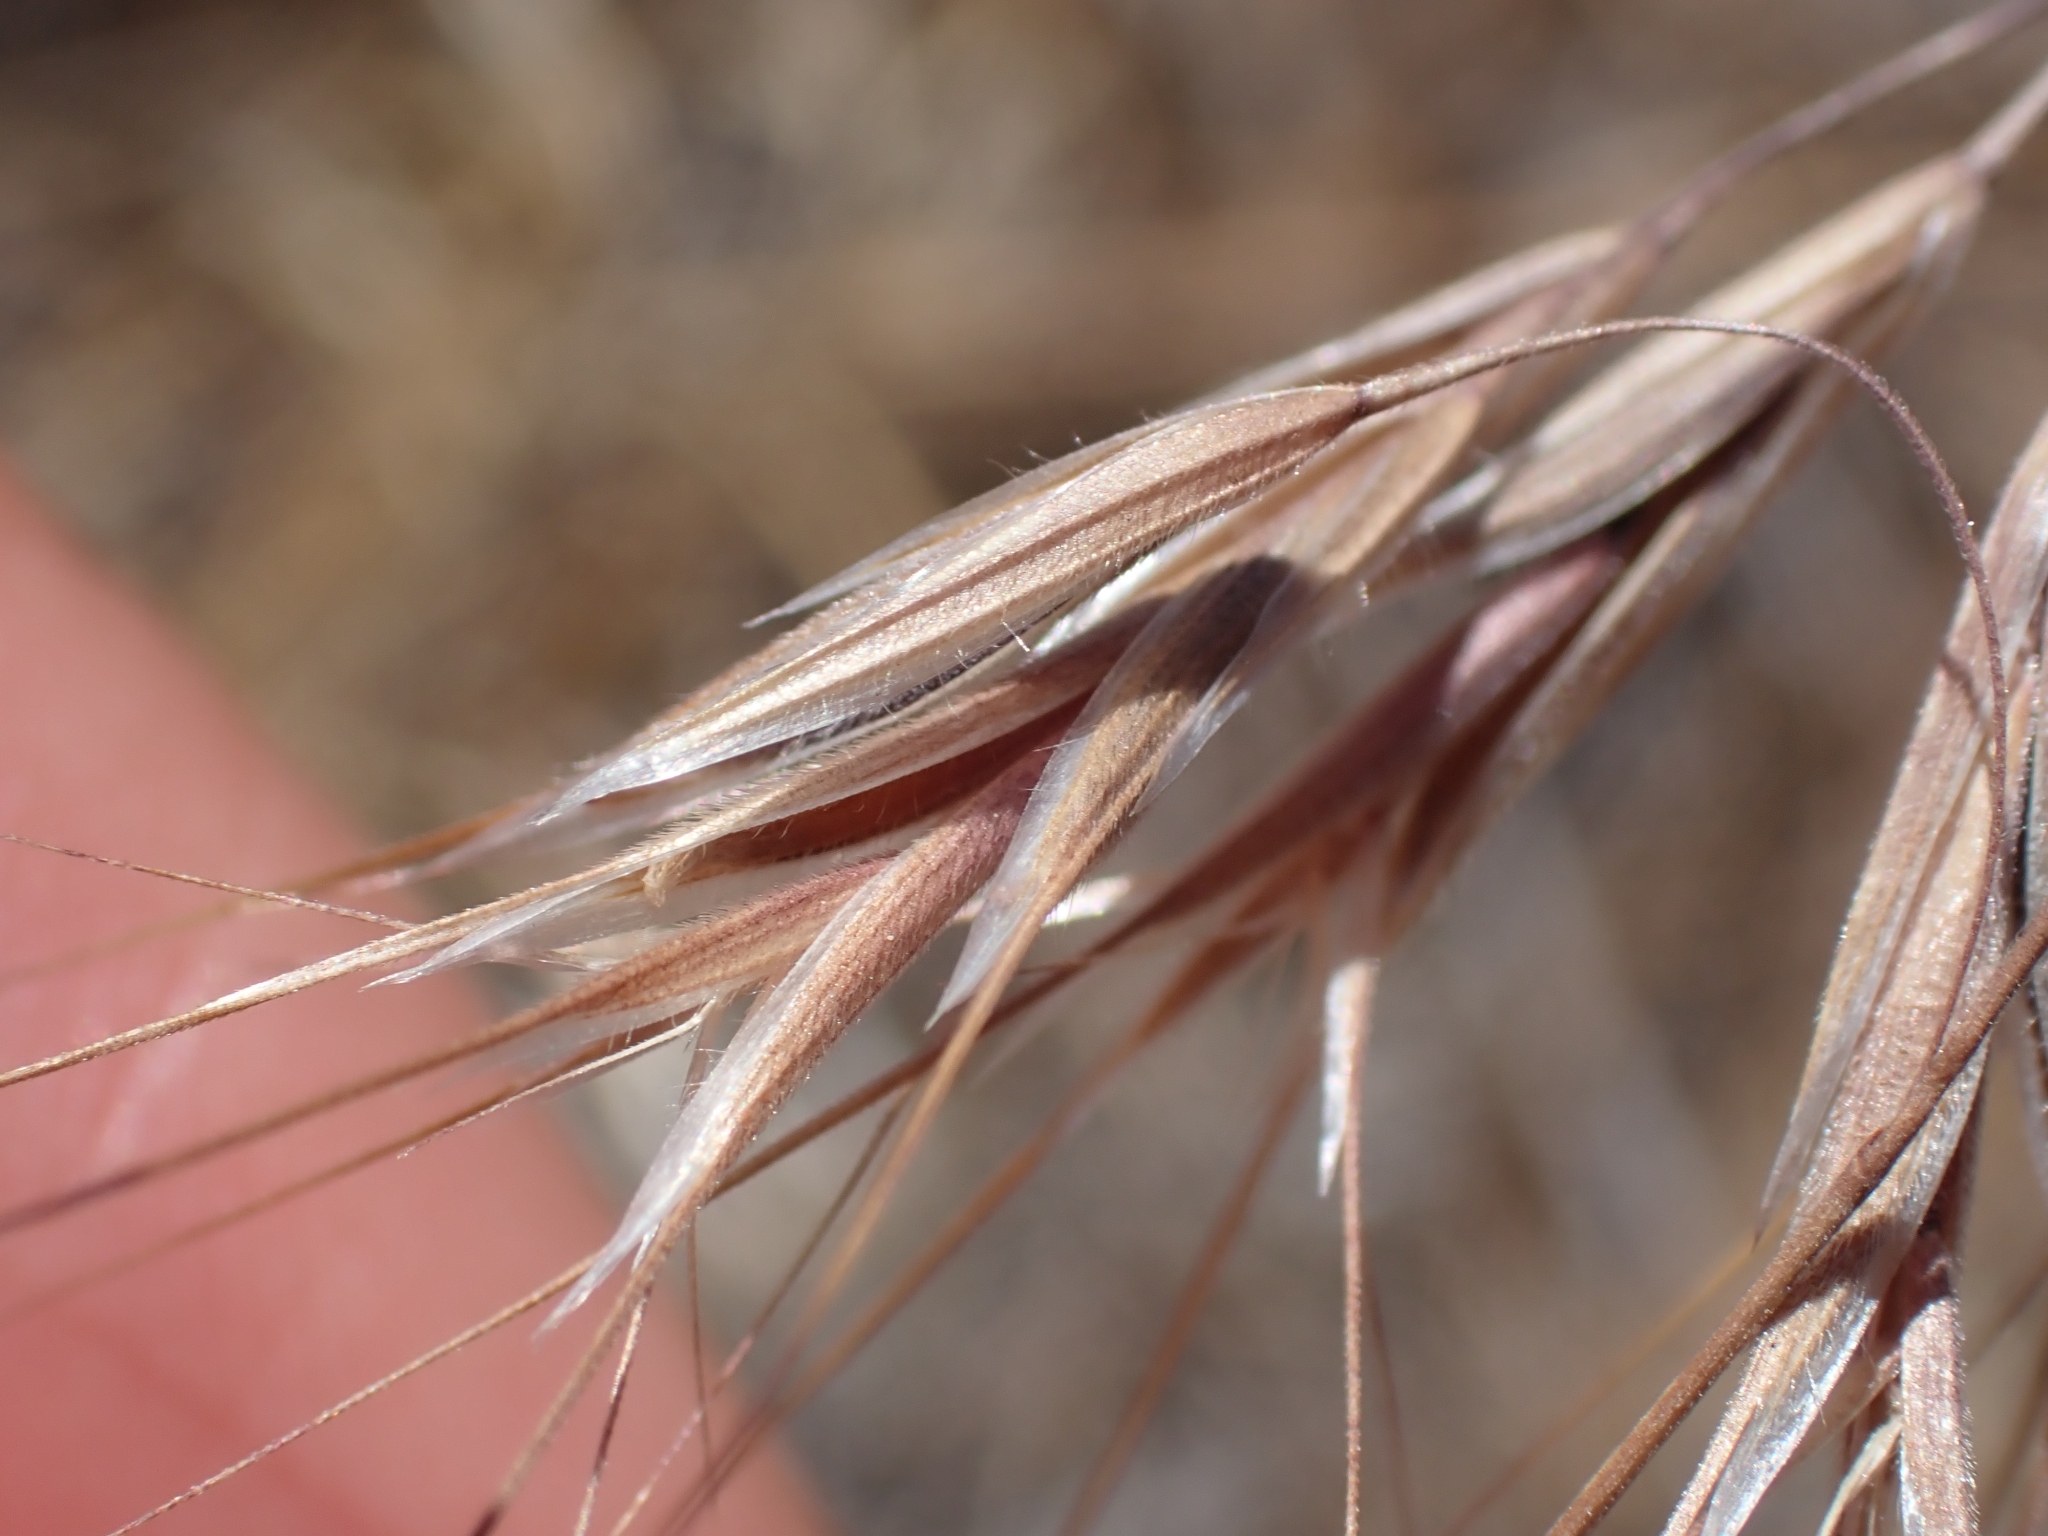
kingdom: Plantae
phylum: Tracheophyta
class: Liliopsida
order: Poales
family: Poaceae
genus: Bromus
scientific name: Bromus tectorum
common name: Cheatgrass
